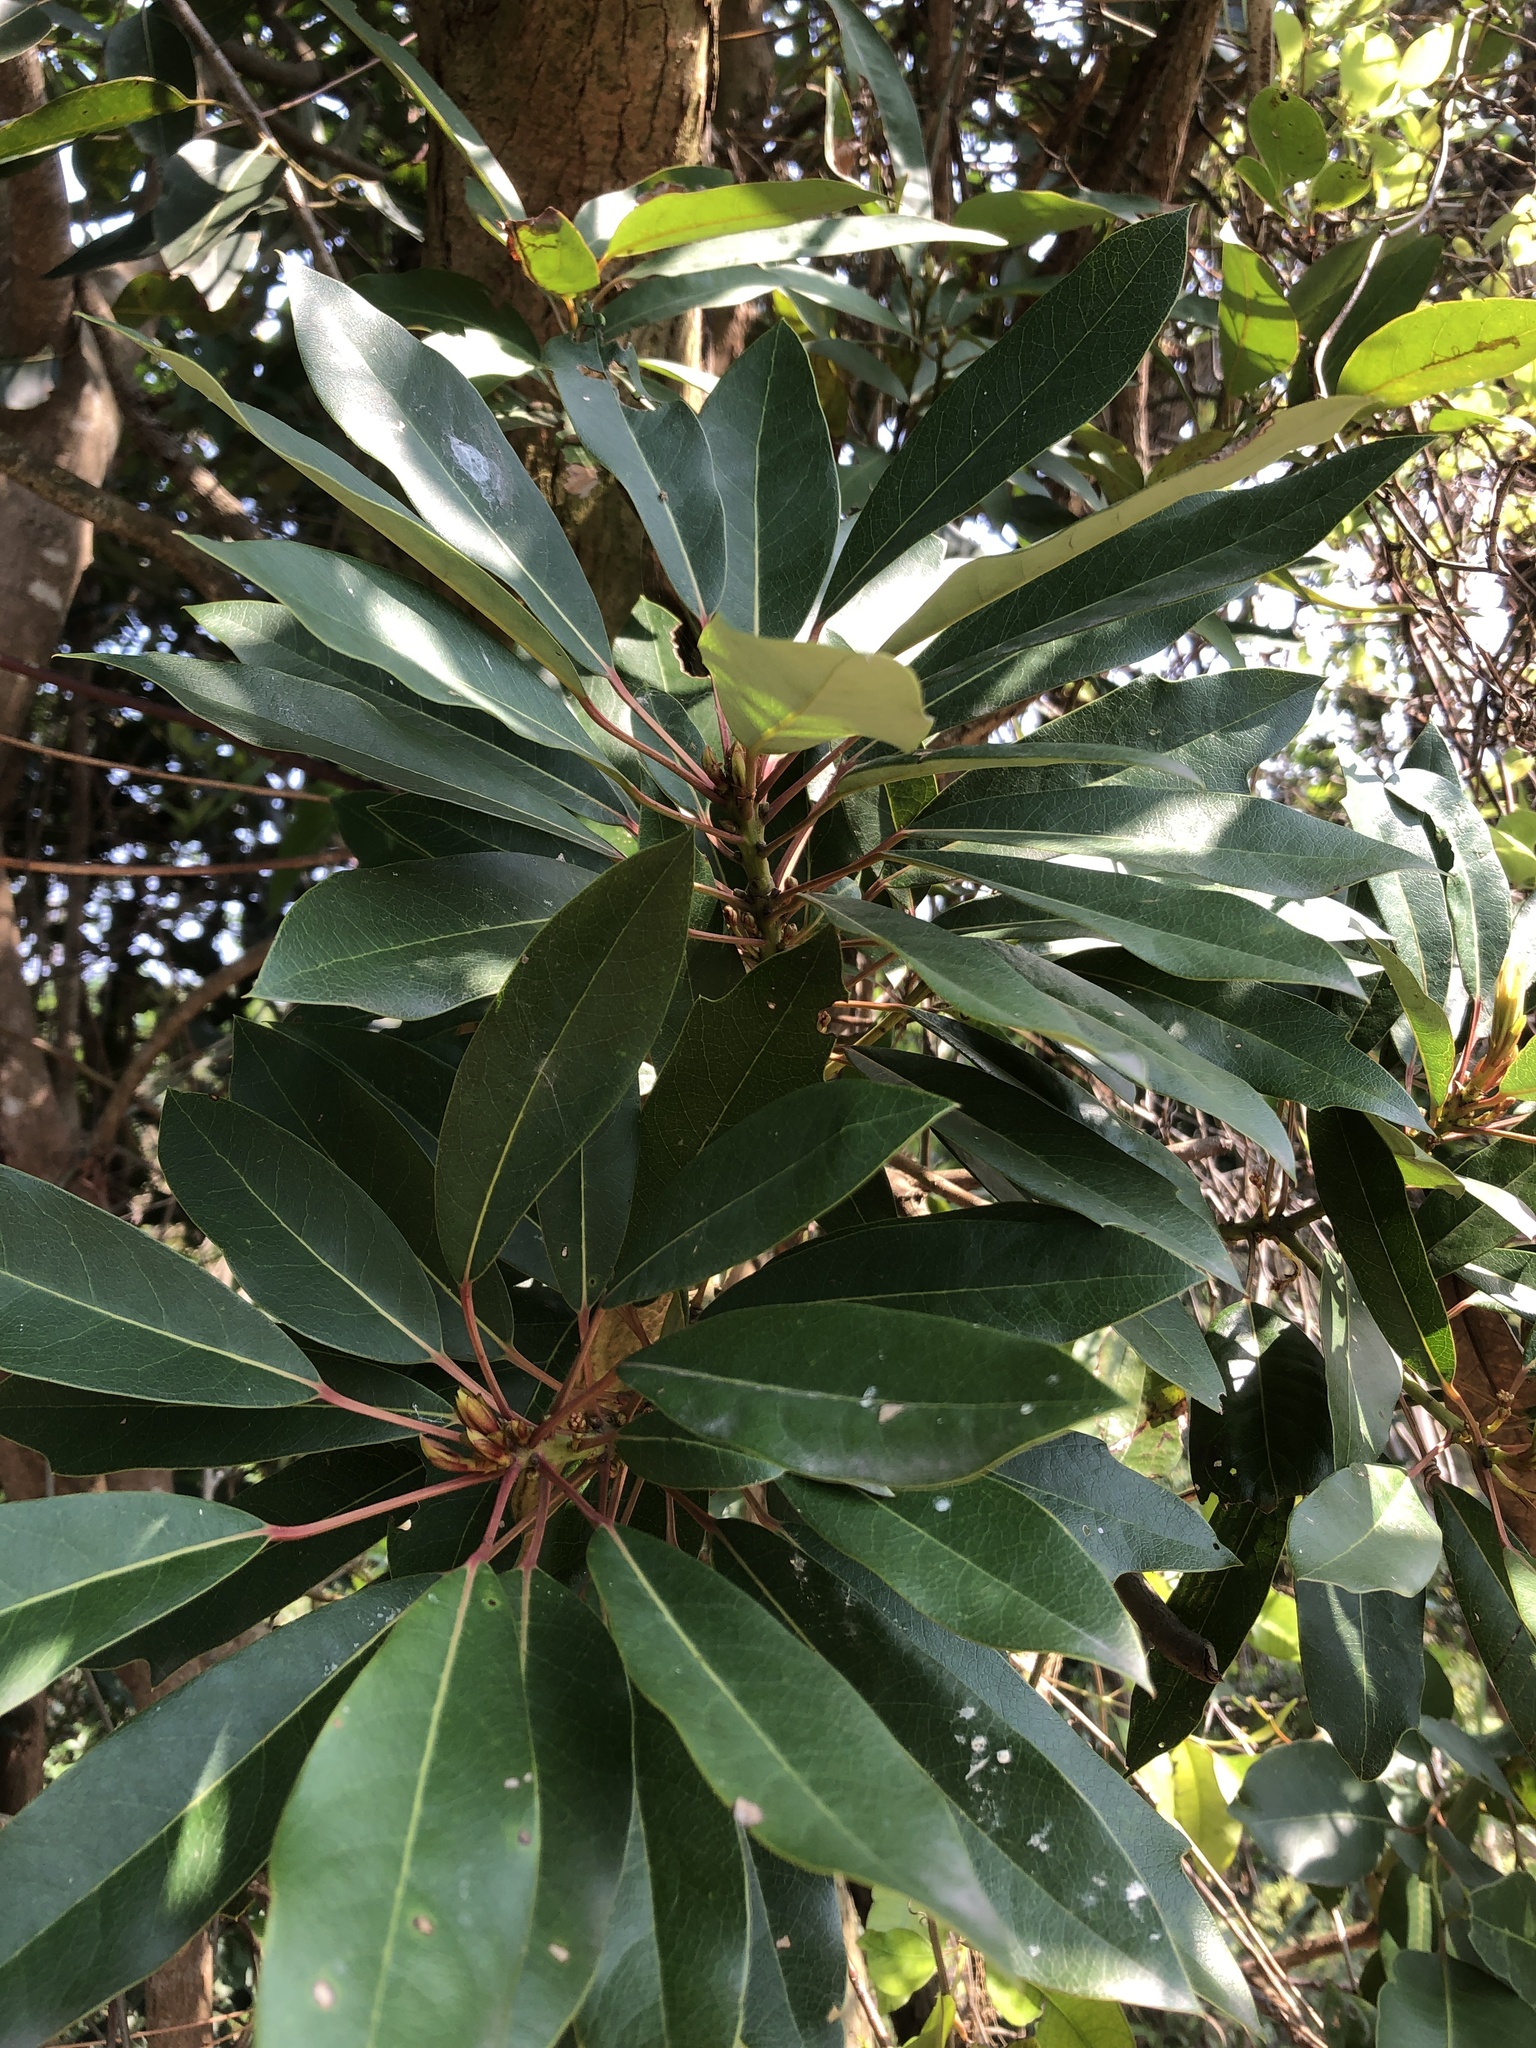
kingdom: Plantae
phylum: Tracheophyta
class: Magnoliopsida
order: Saxifragales
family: Daphniphyllaceae
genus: Daphniphyllum
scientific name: Daphniphyllum pentandrum
